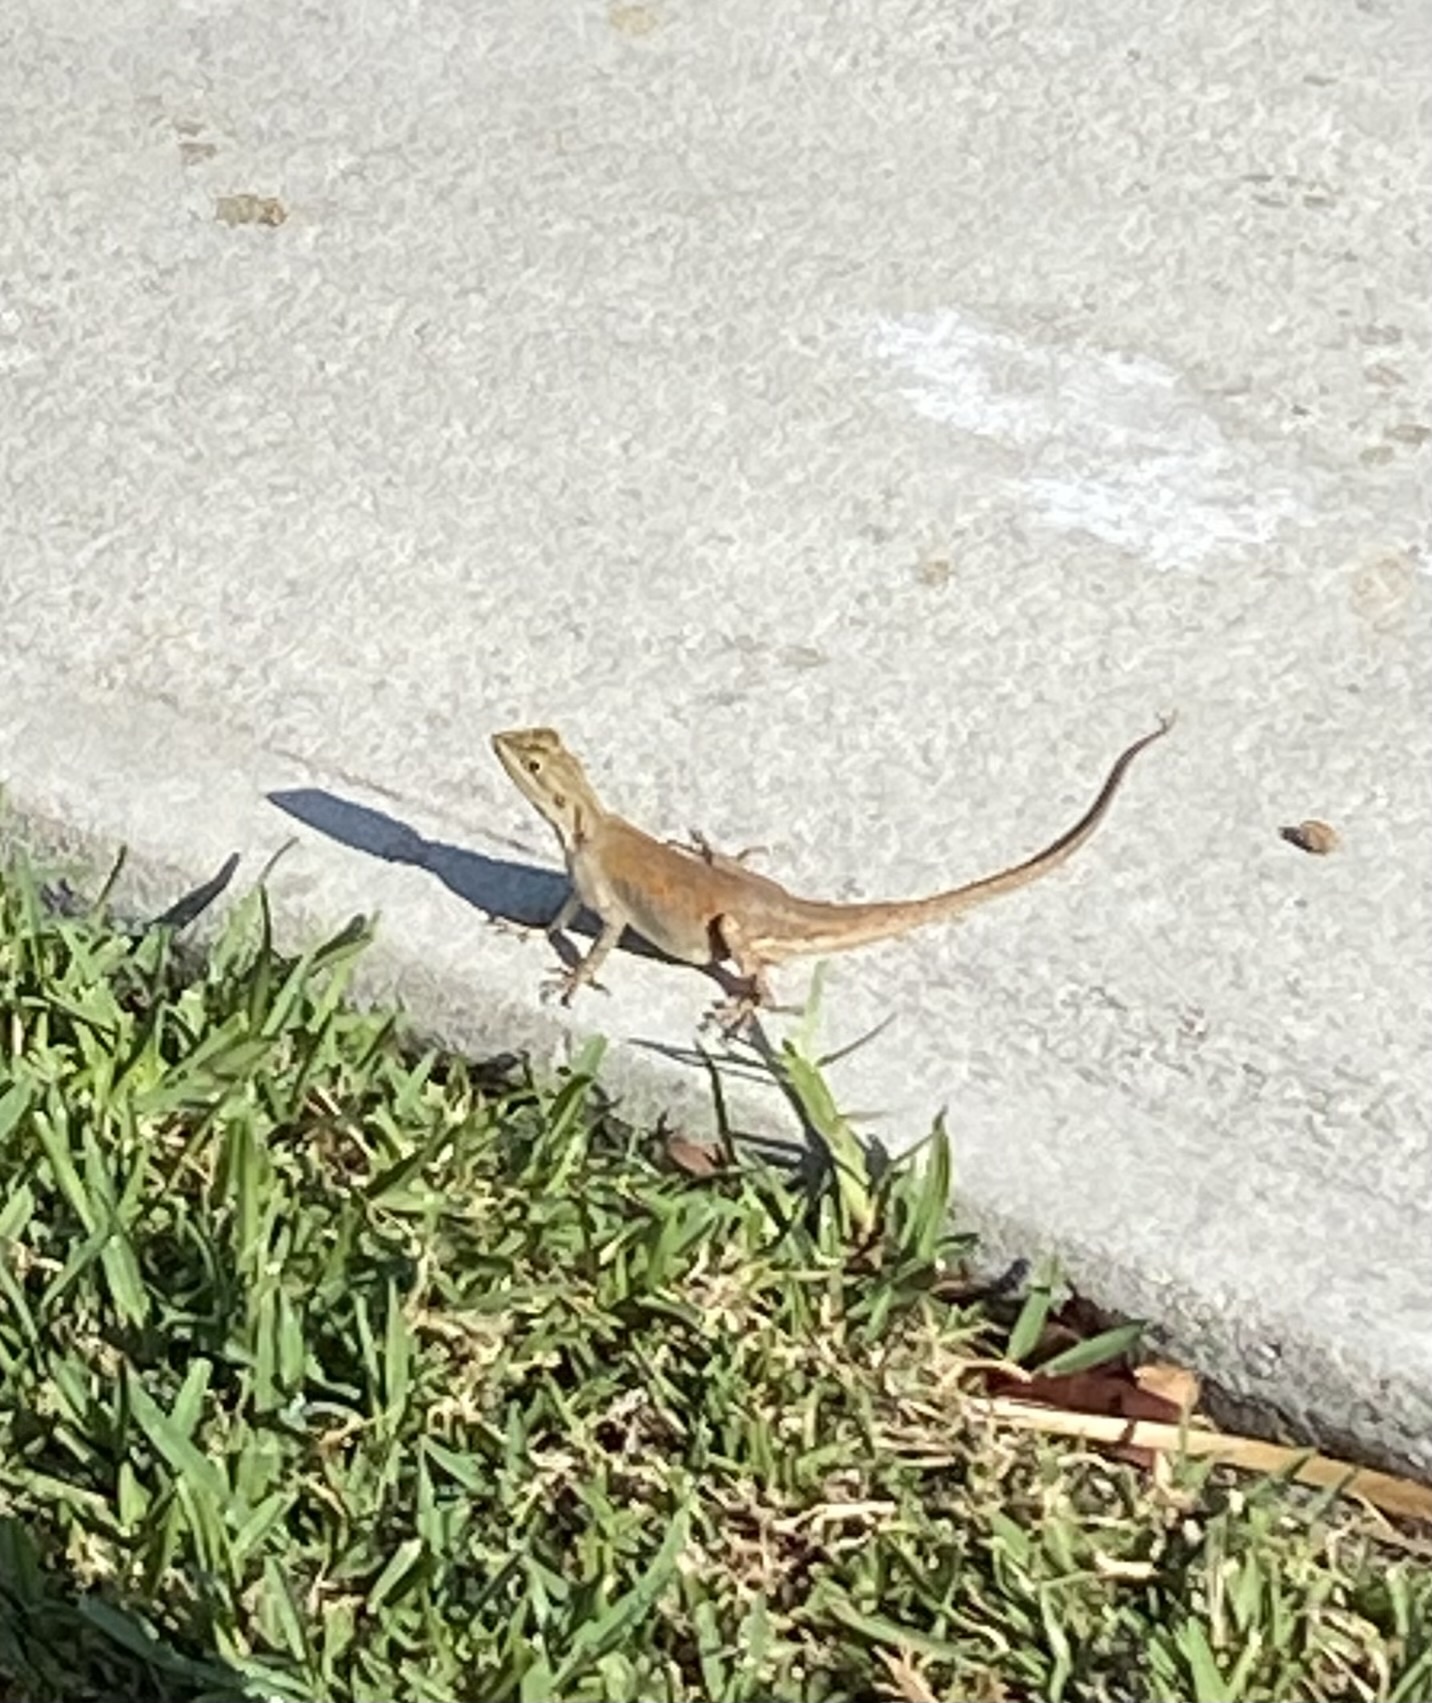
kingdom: Animalia
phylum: Chordata
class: Squamata
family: Agamidae
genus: Agama
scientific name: Agama picticauda
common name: Red-headed agama
